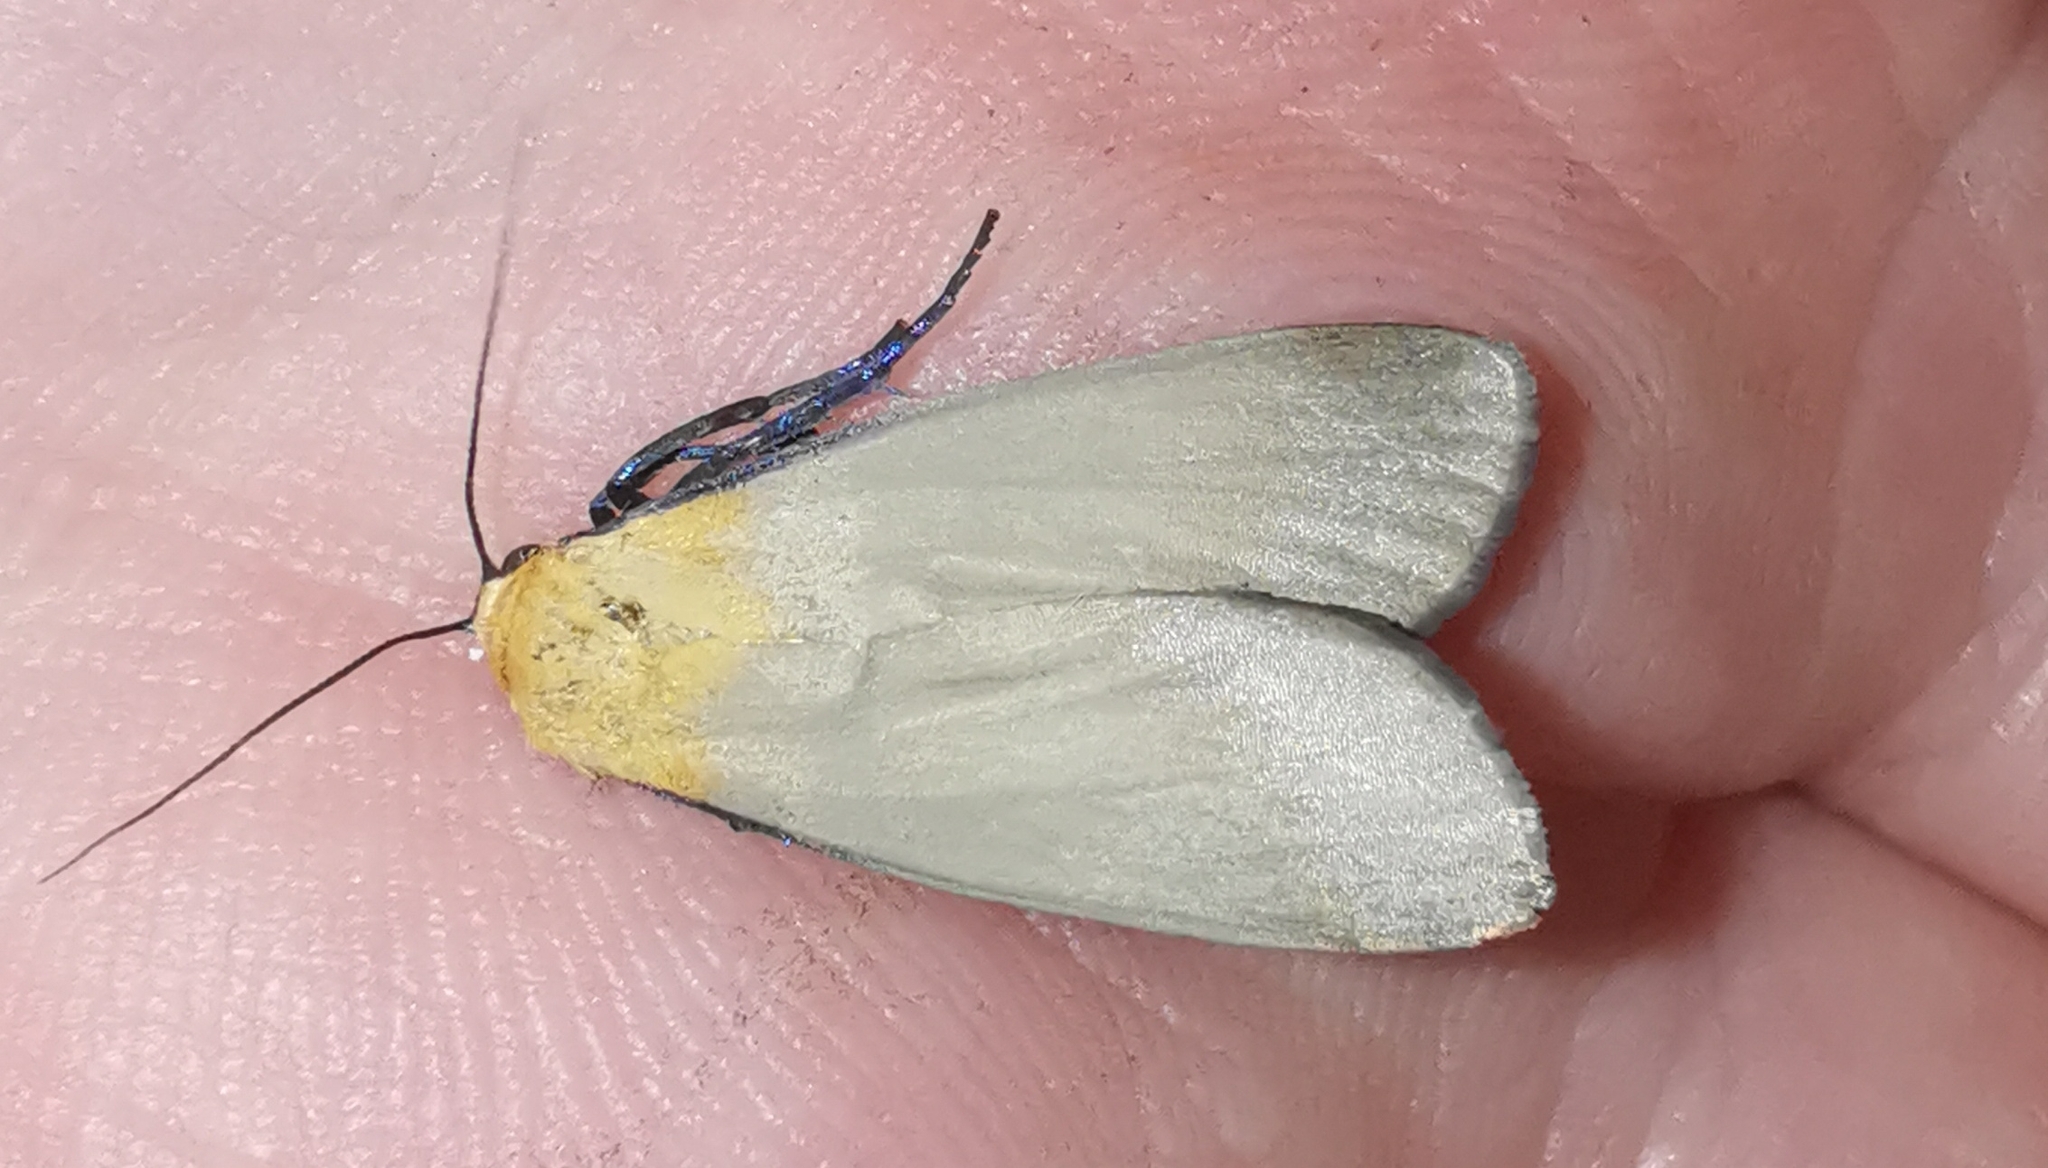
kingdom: Animalia
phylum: Arthropoda
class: Insecta
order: Lepidoptera
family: Erebidae
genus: Lithosia
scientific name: Lithosia quadra
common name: Four-spotted footman
